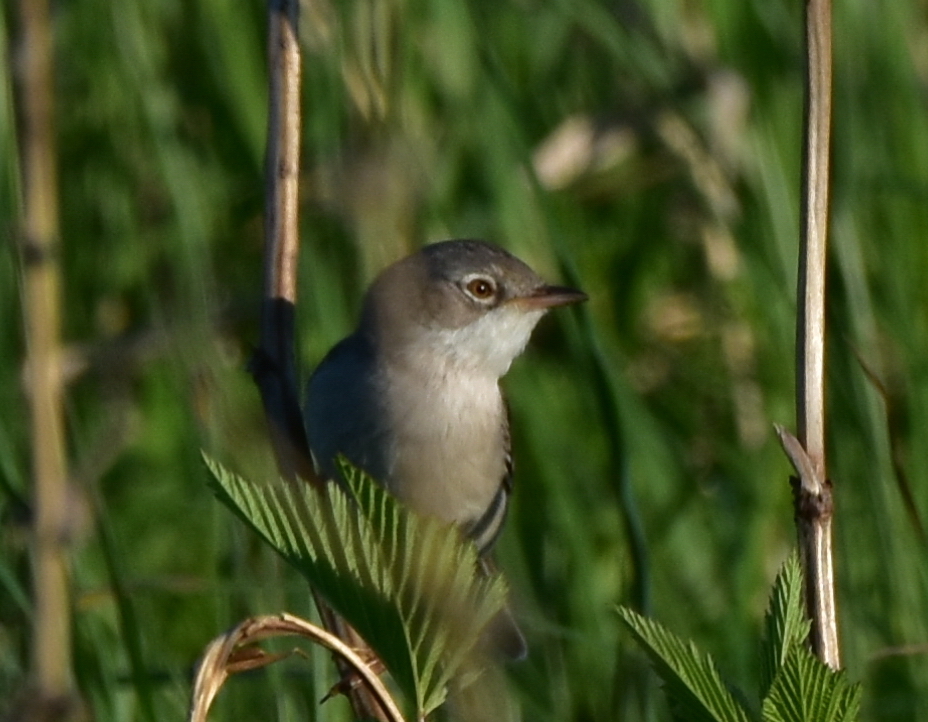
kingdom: Animalia
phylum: Chordata
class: Aves
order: Passeriformes
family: Sylviidae
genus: Sylvia
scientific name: Sylvia communis
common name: Common whitethroat
